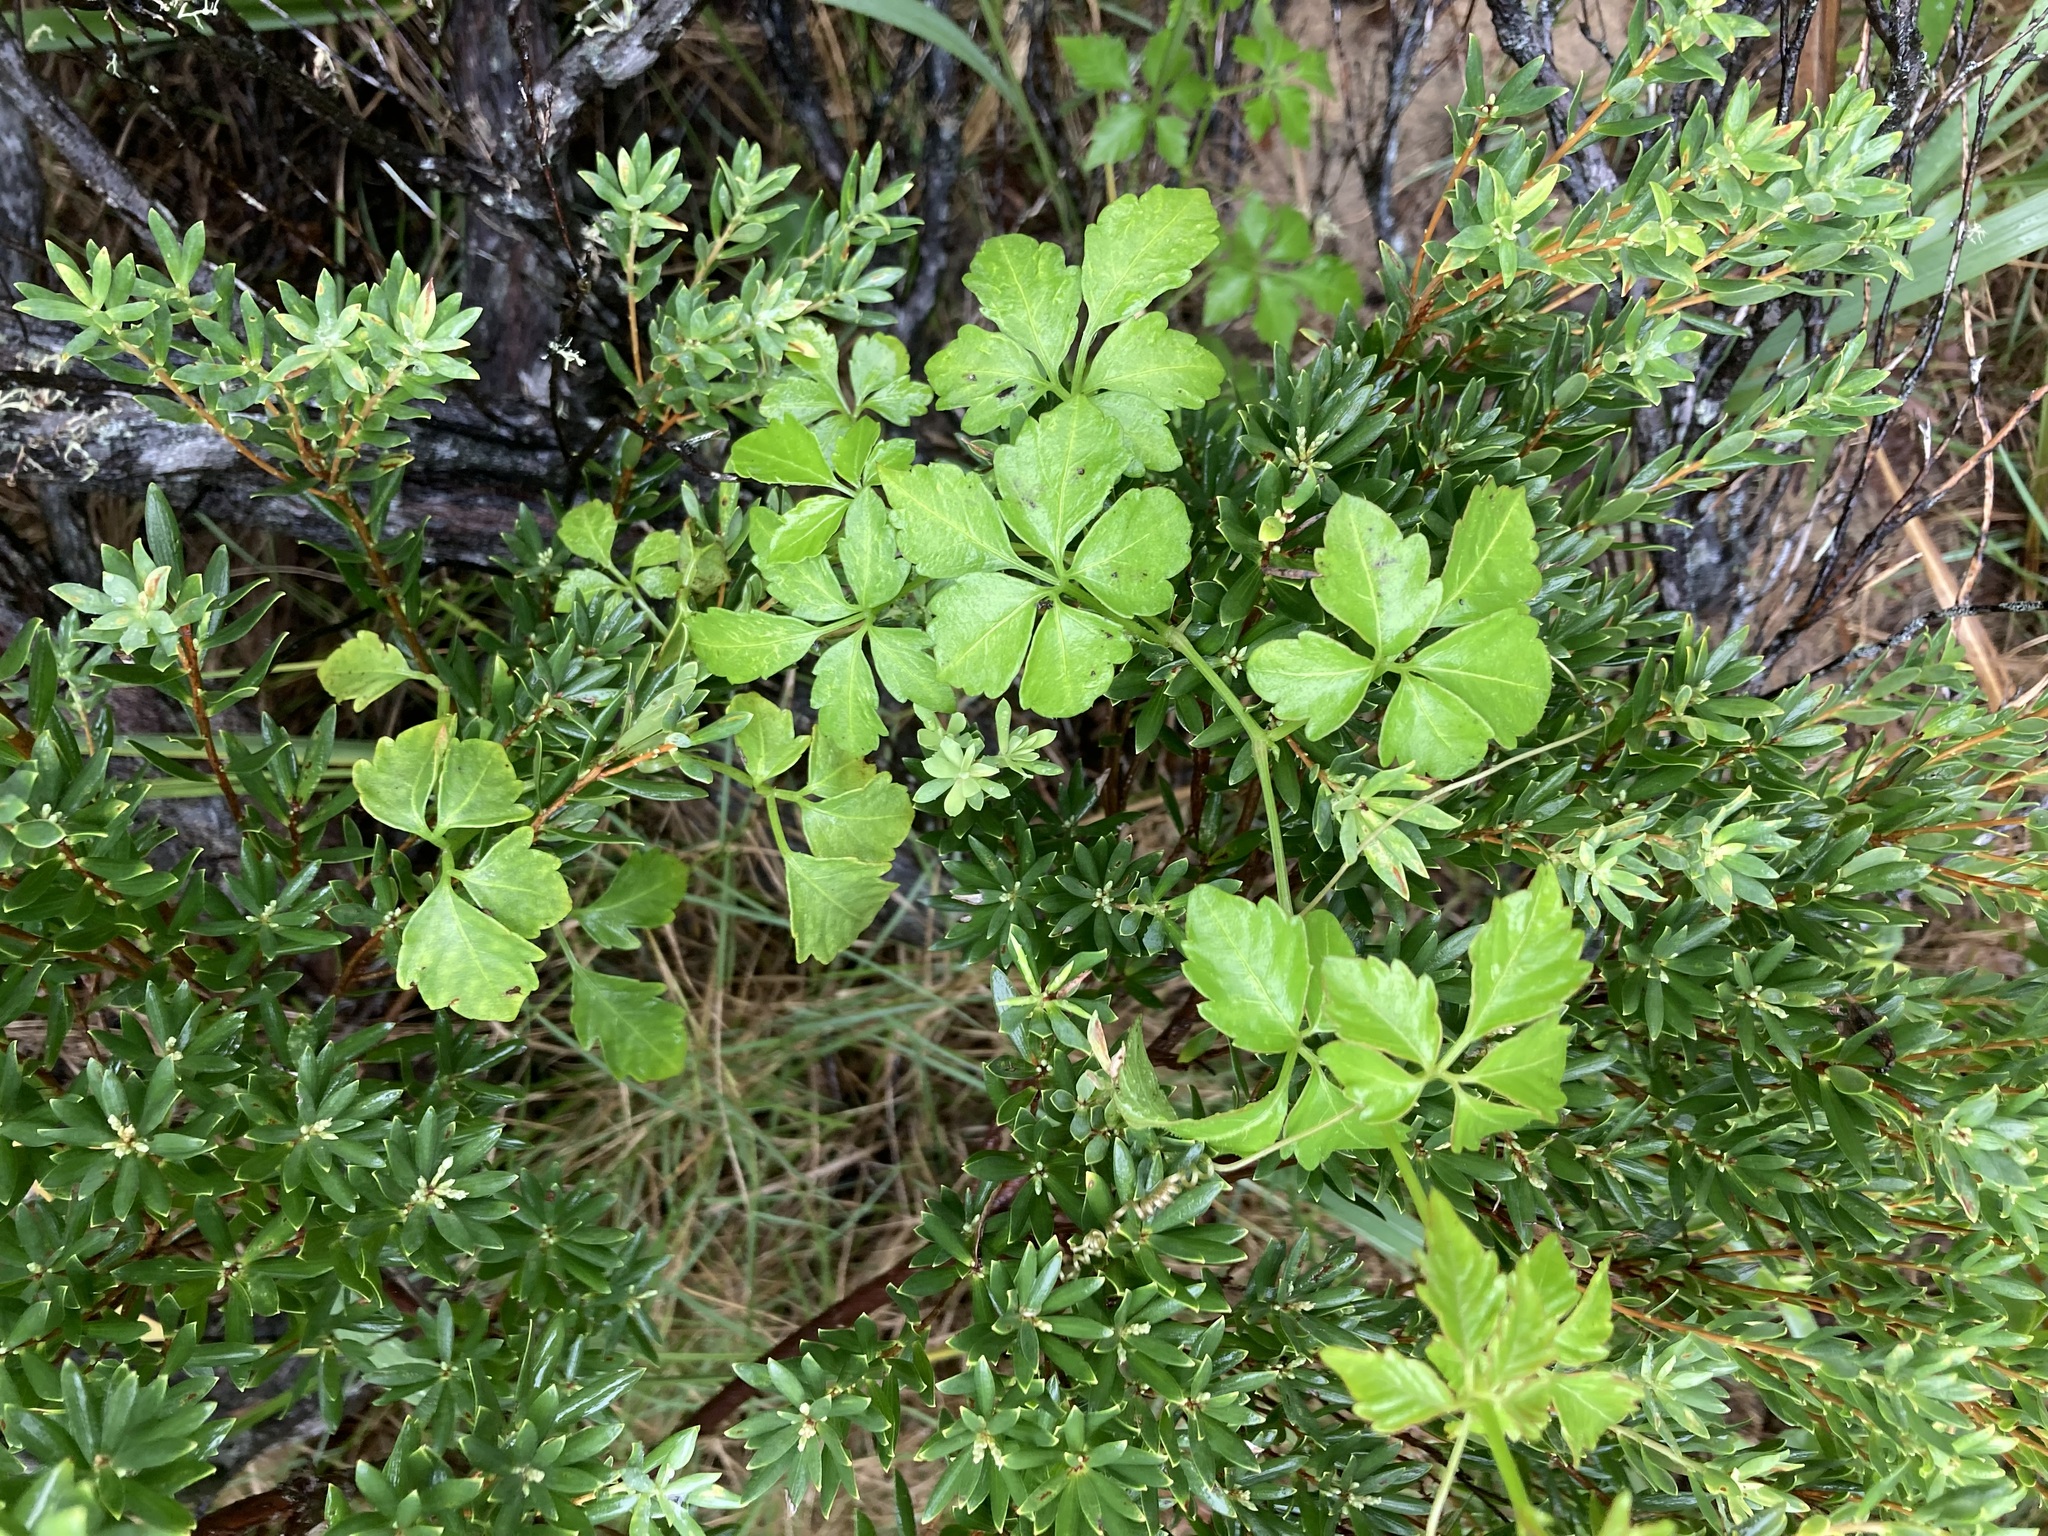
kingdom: Plantae
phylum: Tracheophyta
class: Magnoliopsida
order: Vitales
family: Vitaceae
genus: Causonis
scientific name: Causonis clematidea
